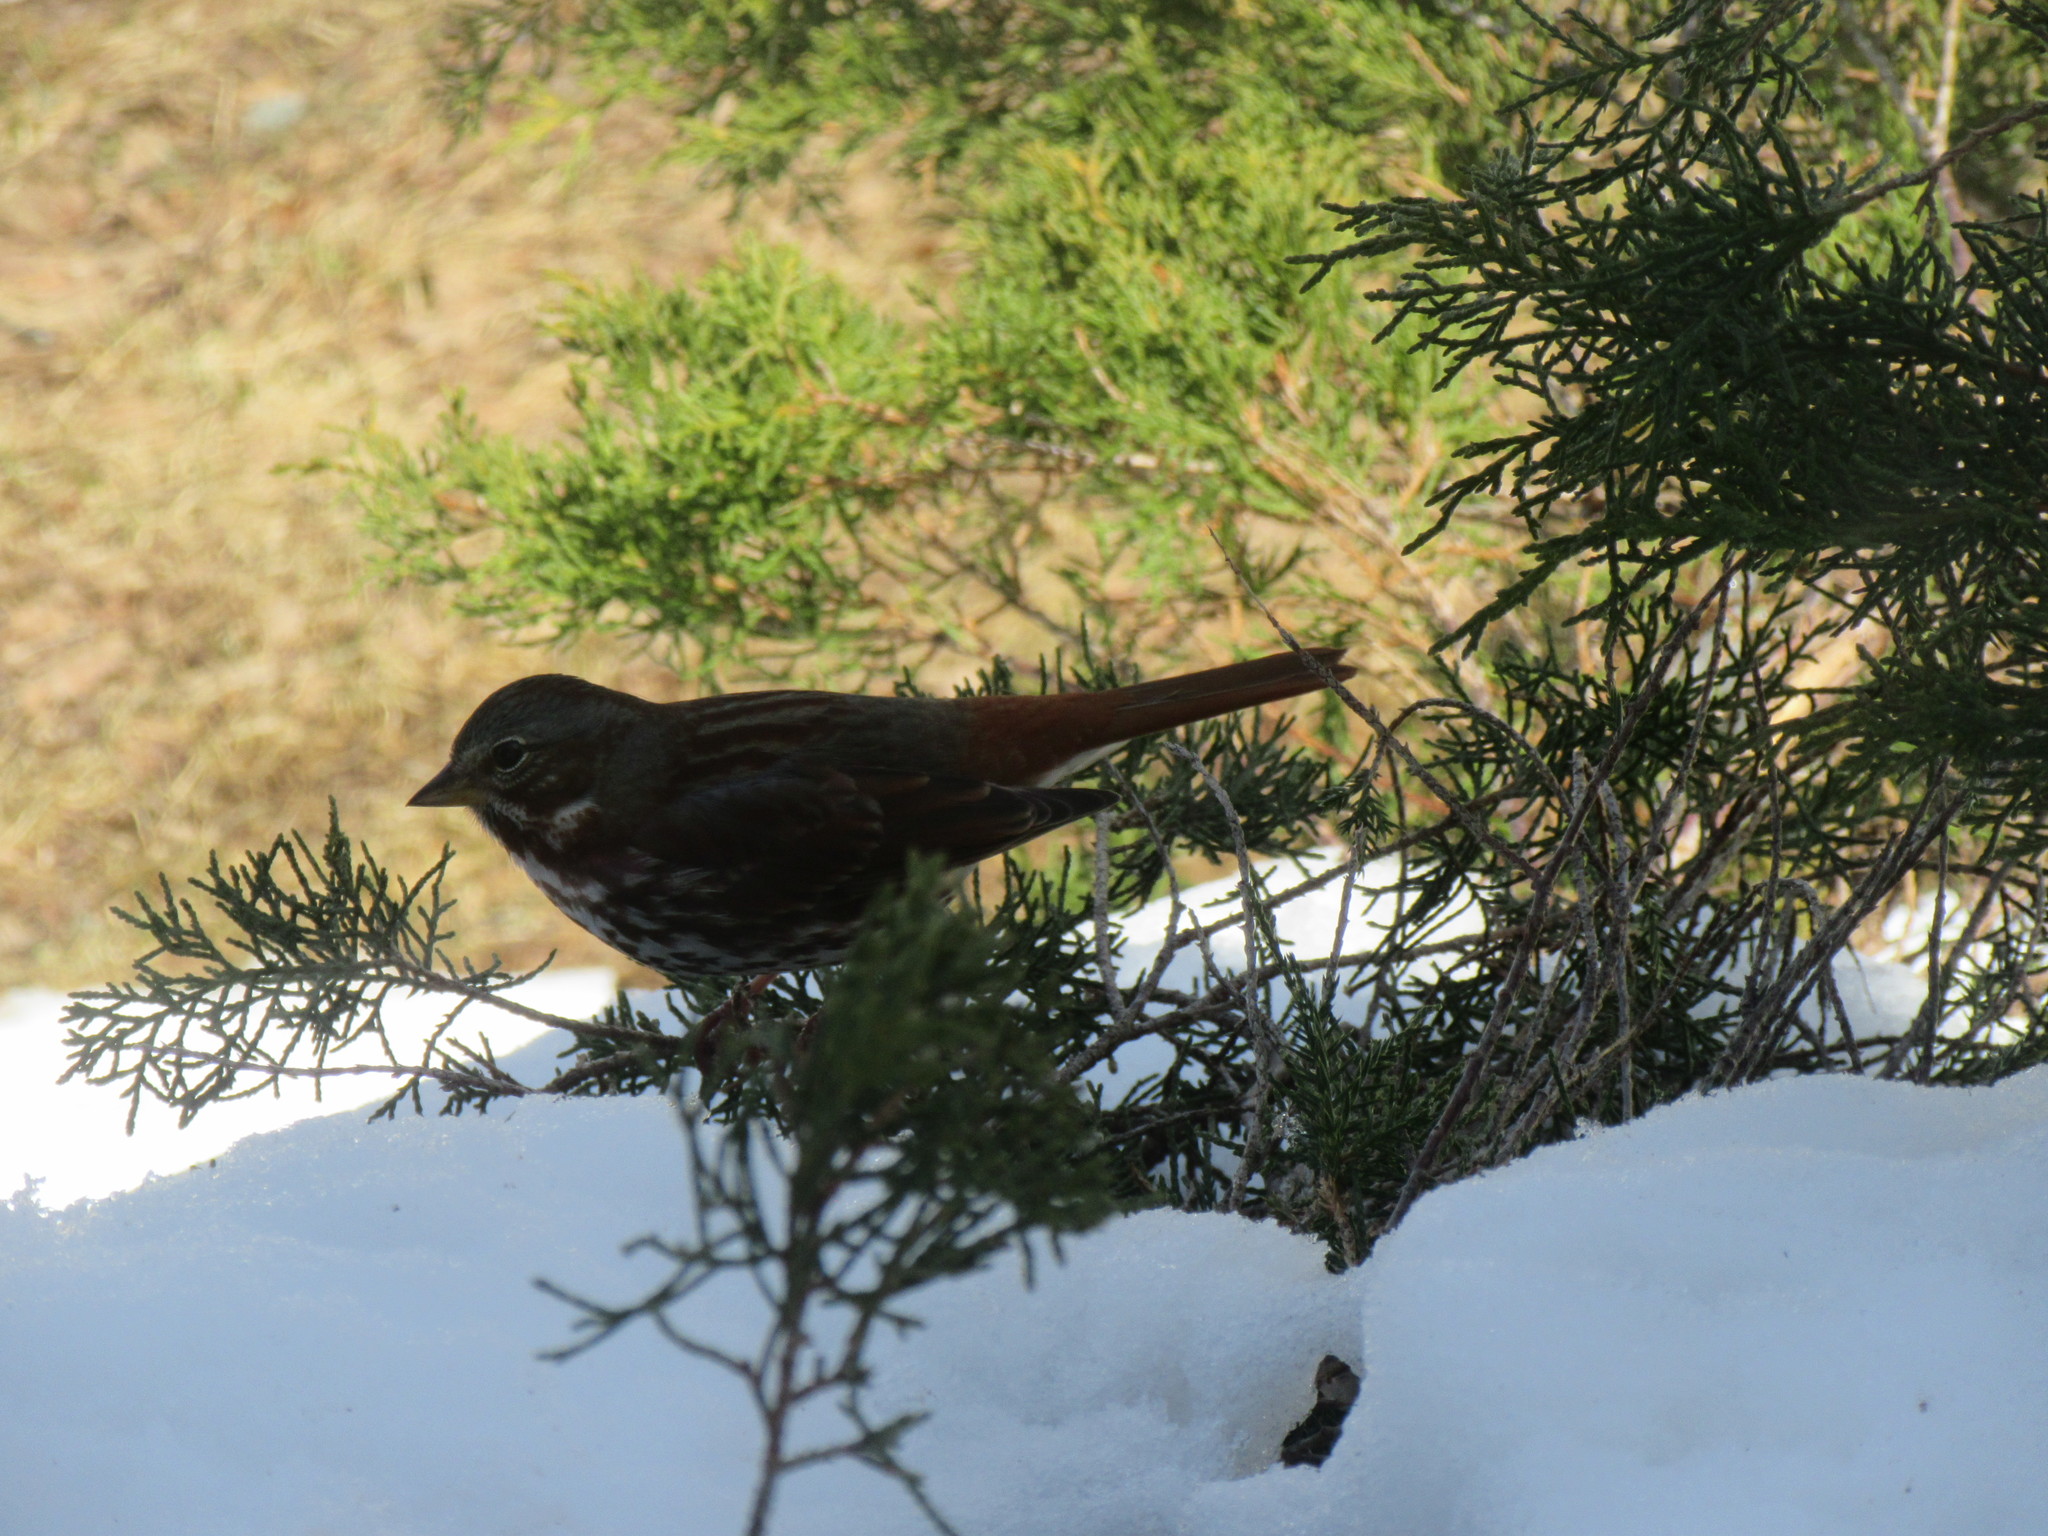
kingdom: Animalia
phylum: Chordata
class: Aves
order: Passeriformes
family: Passerellidae
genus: Passerella
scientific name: Passerella iliaca
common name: Fox sparrow
